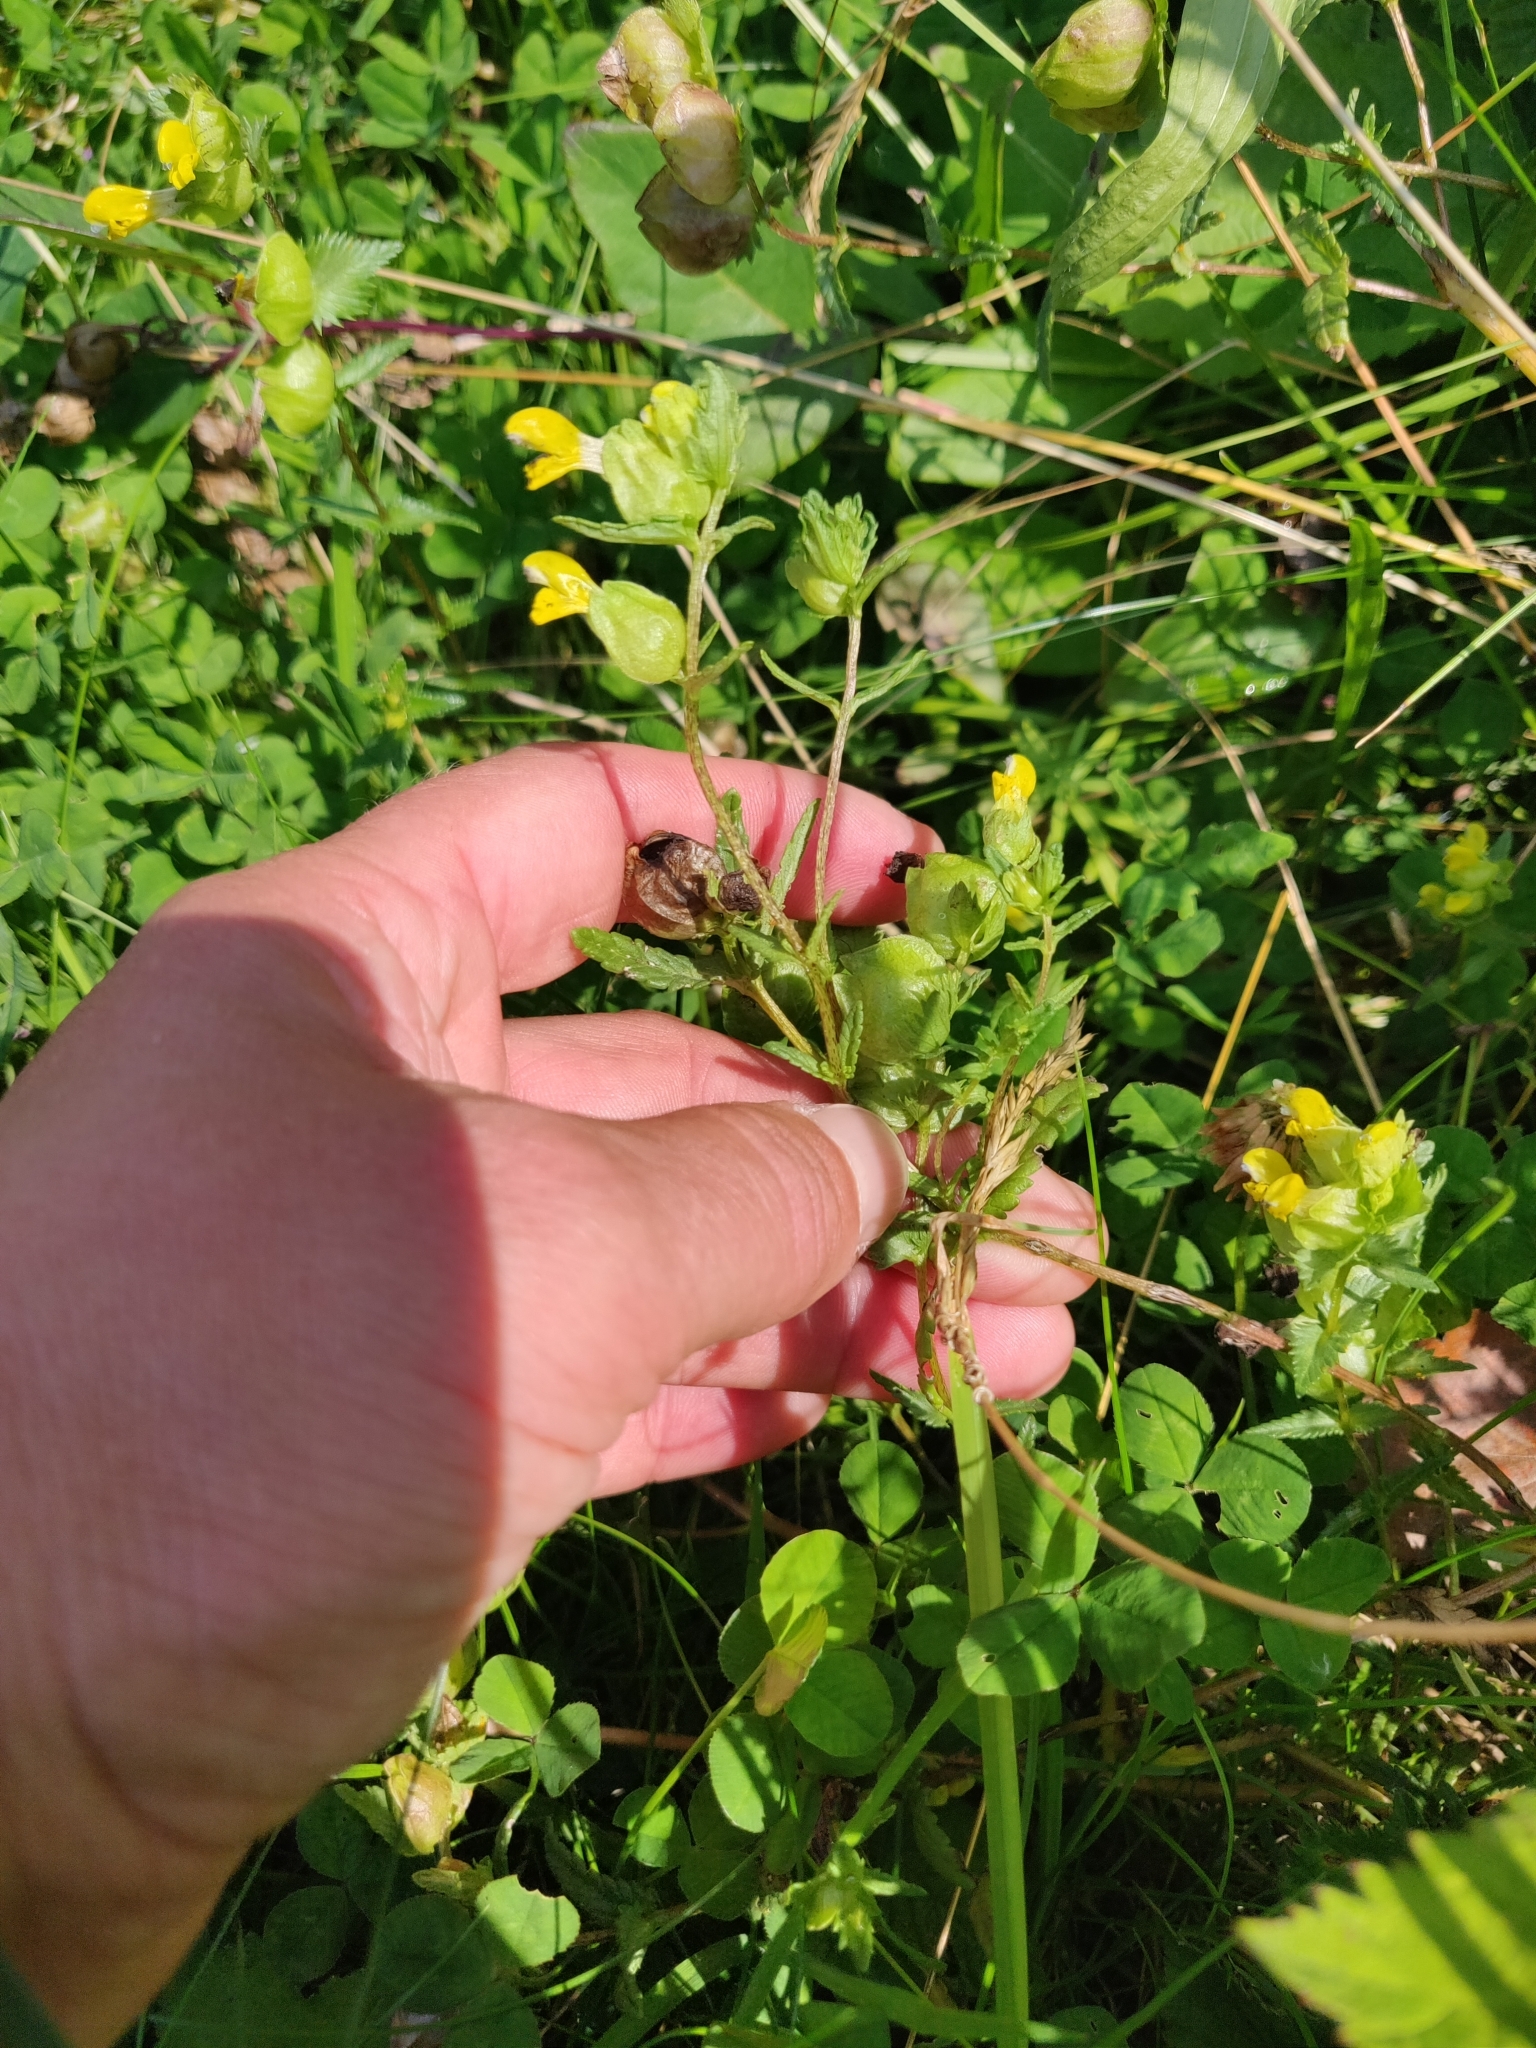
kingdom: Plantae
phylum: Tracheophyta
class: Magnoliopsida
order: Lamiales
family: Orobanchaceae
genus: Rhinanthus
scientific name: Rhinanthus minor
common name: Yellow-rattle
